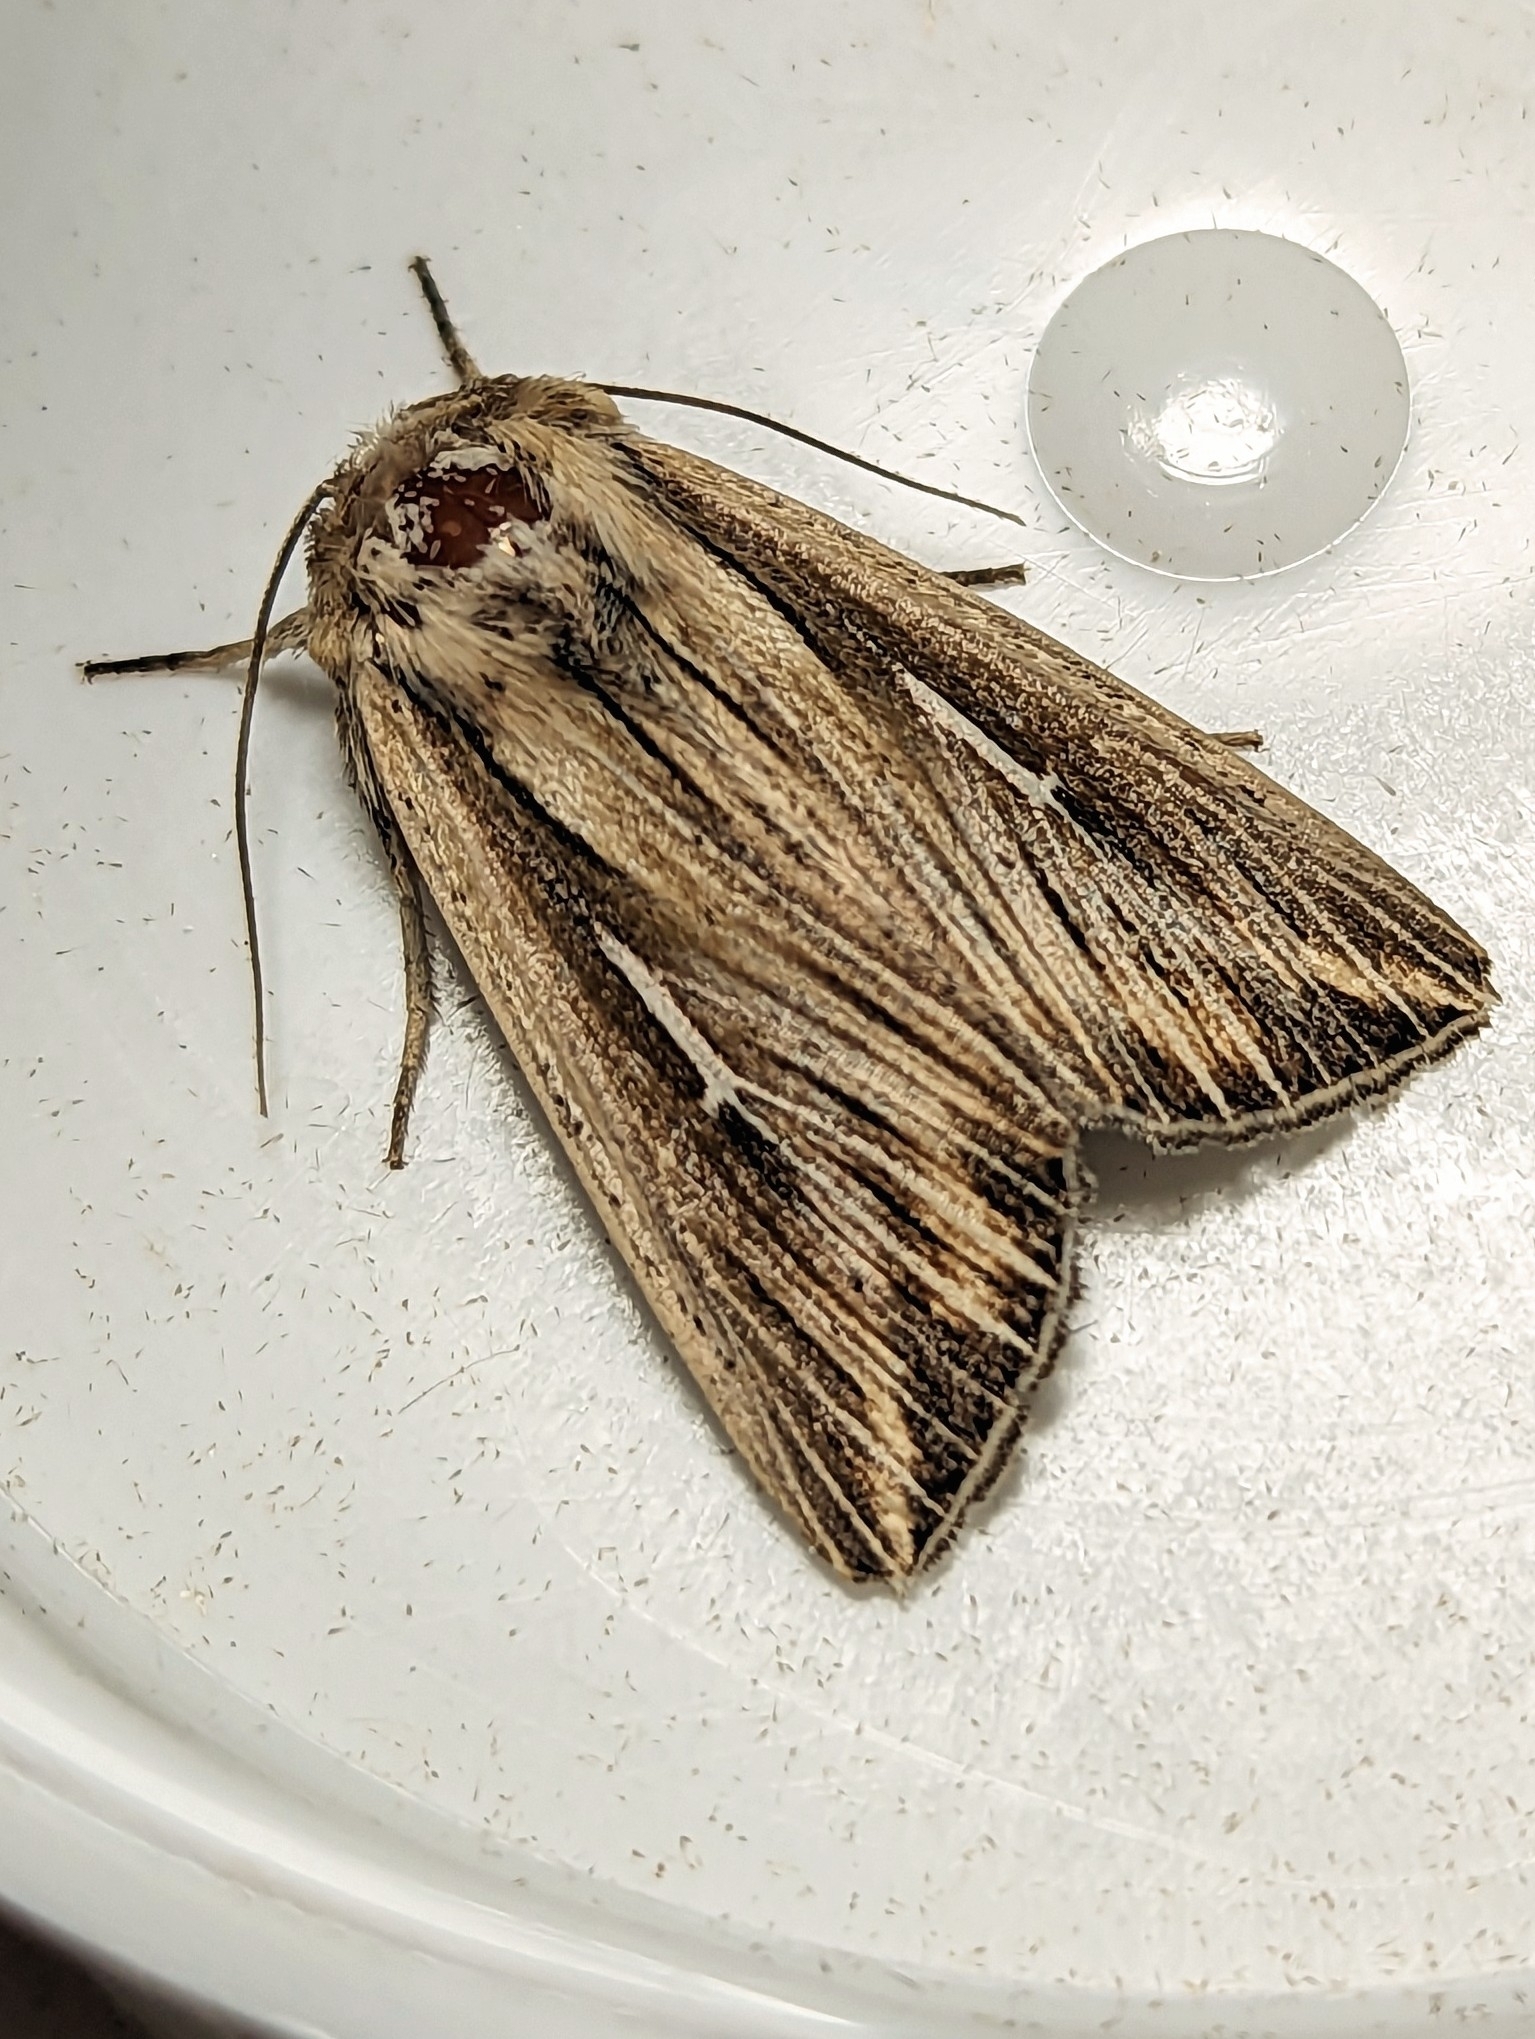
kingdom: Animalia
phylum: Arthropoda
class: Insecta
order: Lepidoptera
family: Noctuidae
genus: Mythimna
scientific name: Mythimna l-album
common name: L-album wainscot
